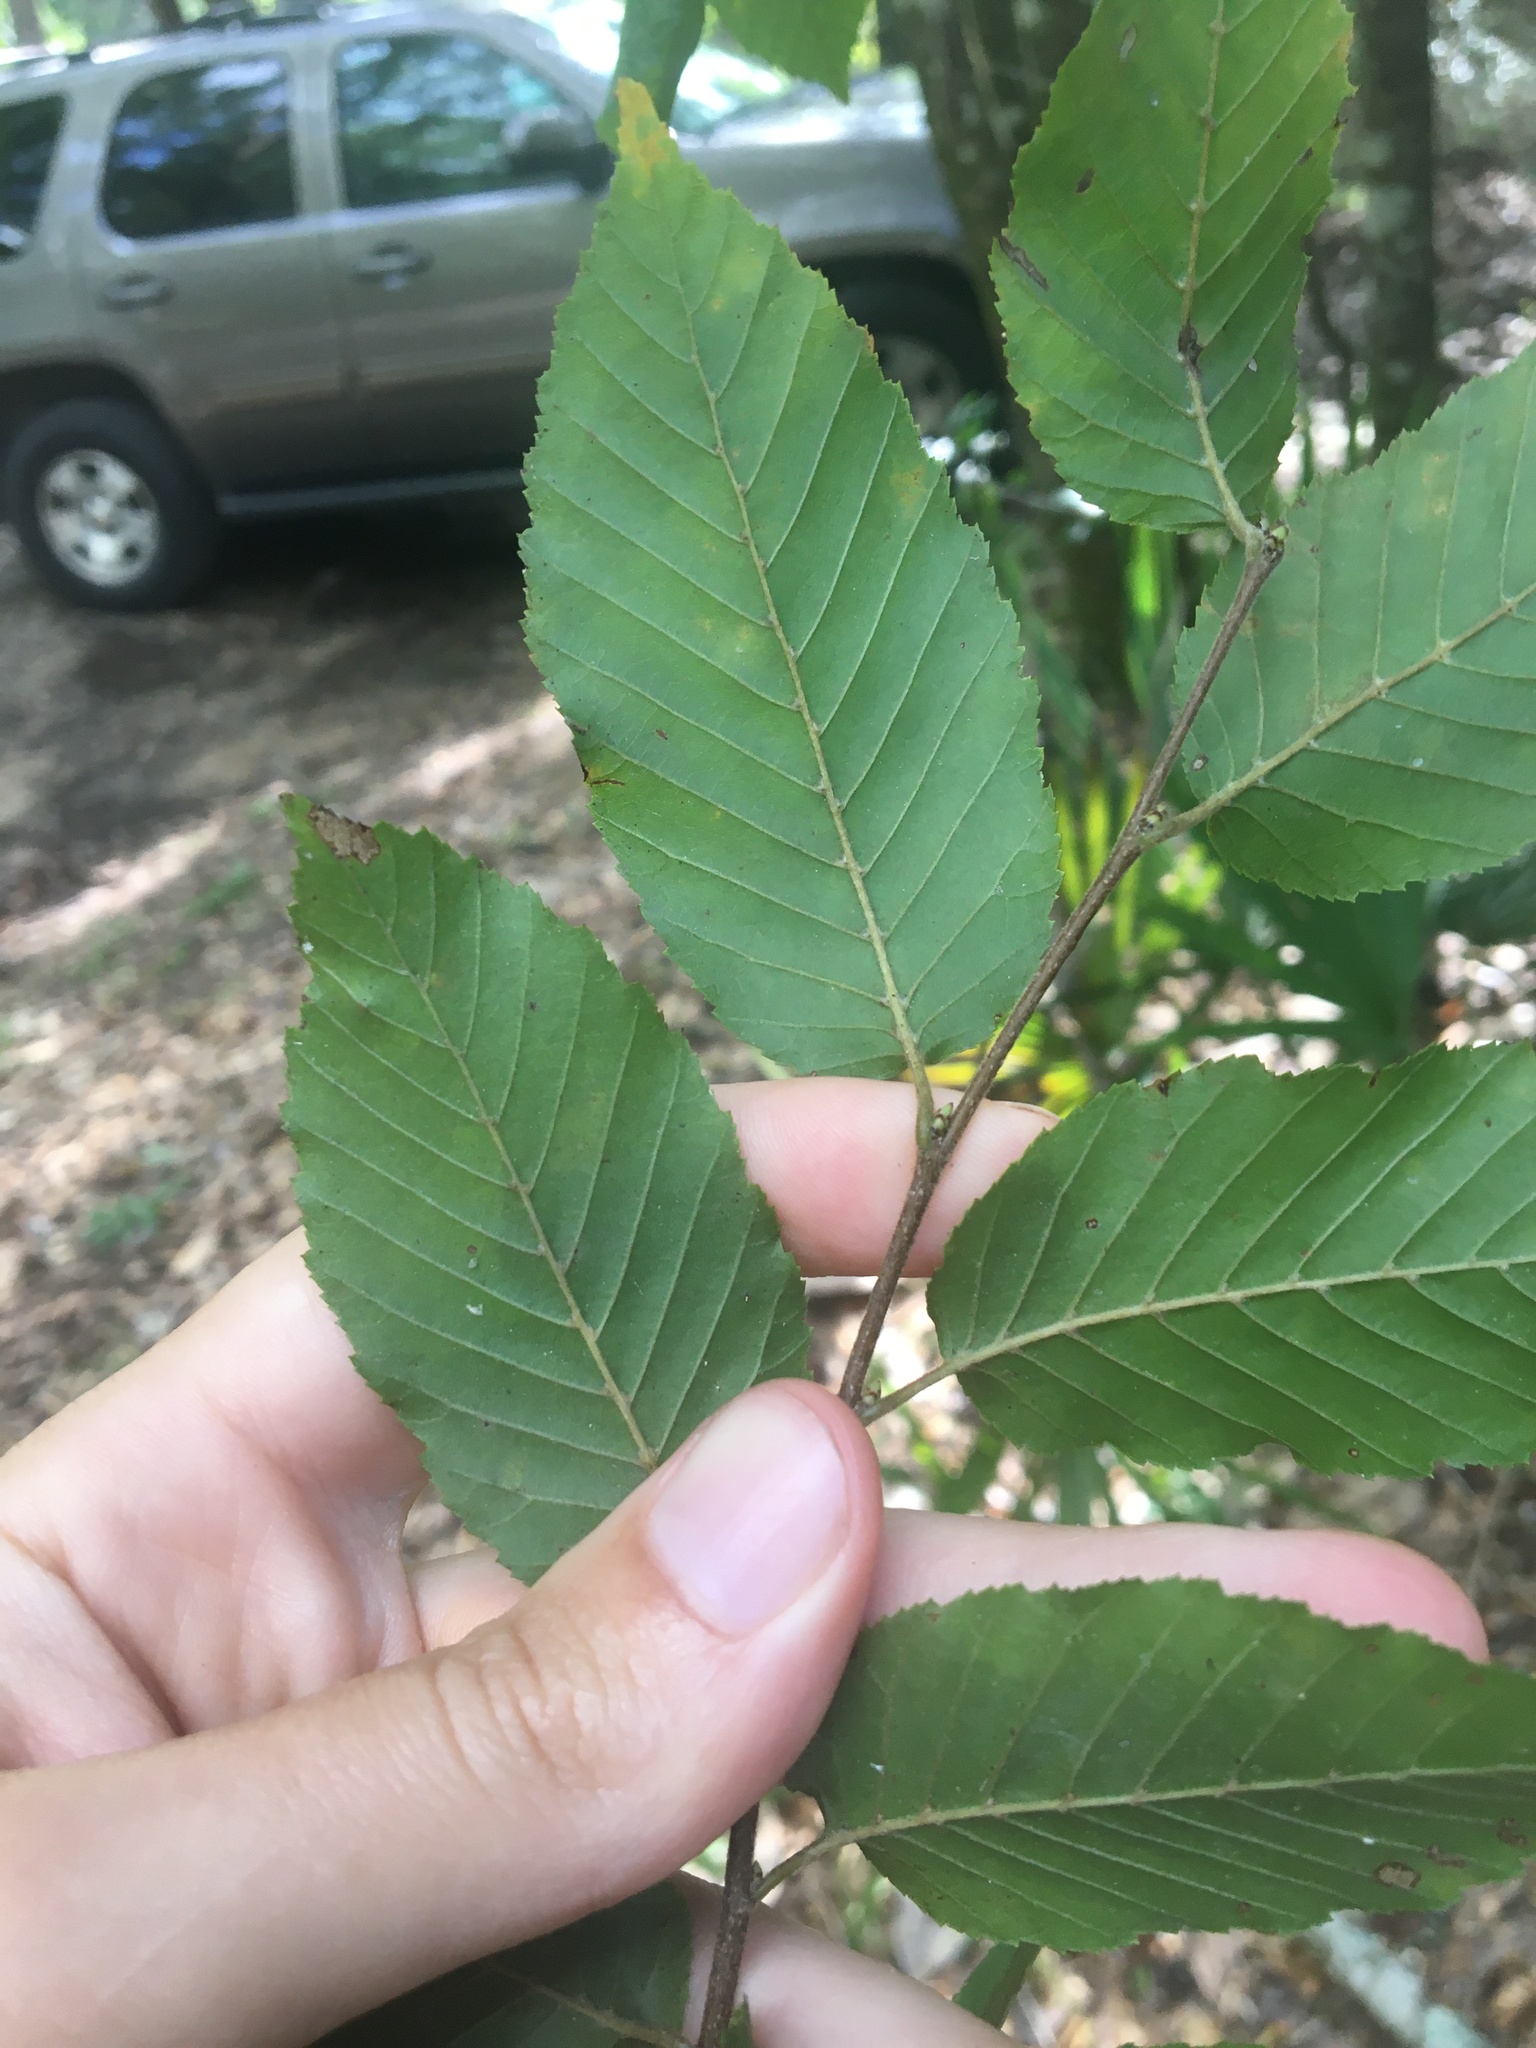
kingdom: Plantae
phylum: Tracheophyta
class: Magnoliopsida
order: Fagales
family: Betulaceae
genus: Carpinus
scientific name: Carpinus caroliniana
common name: American hornbeam
